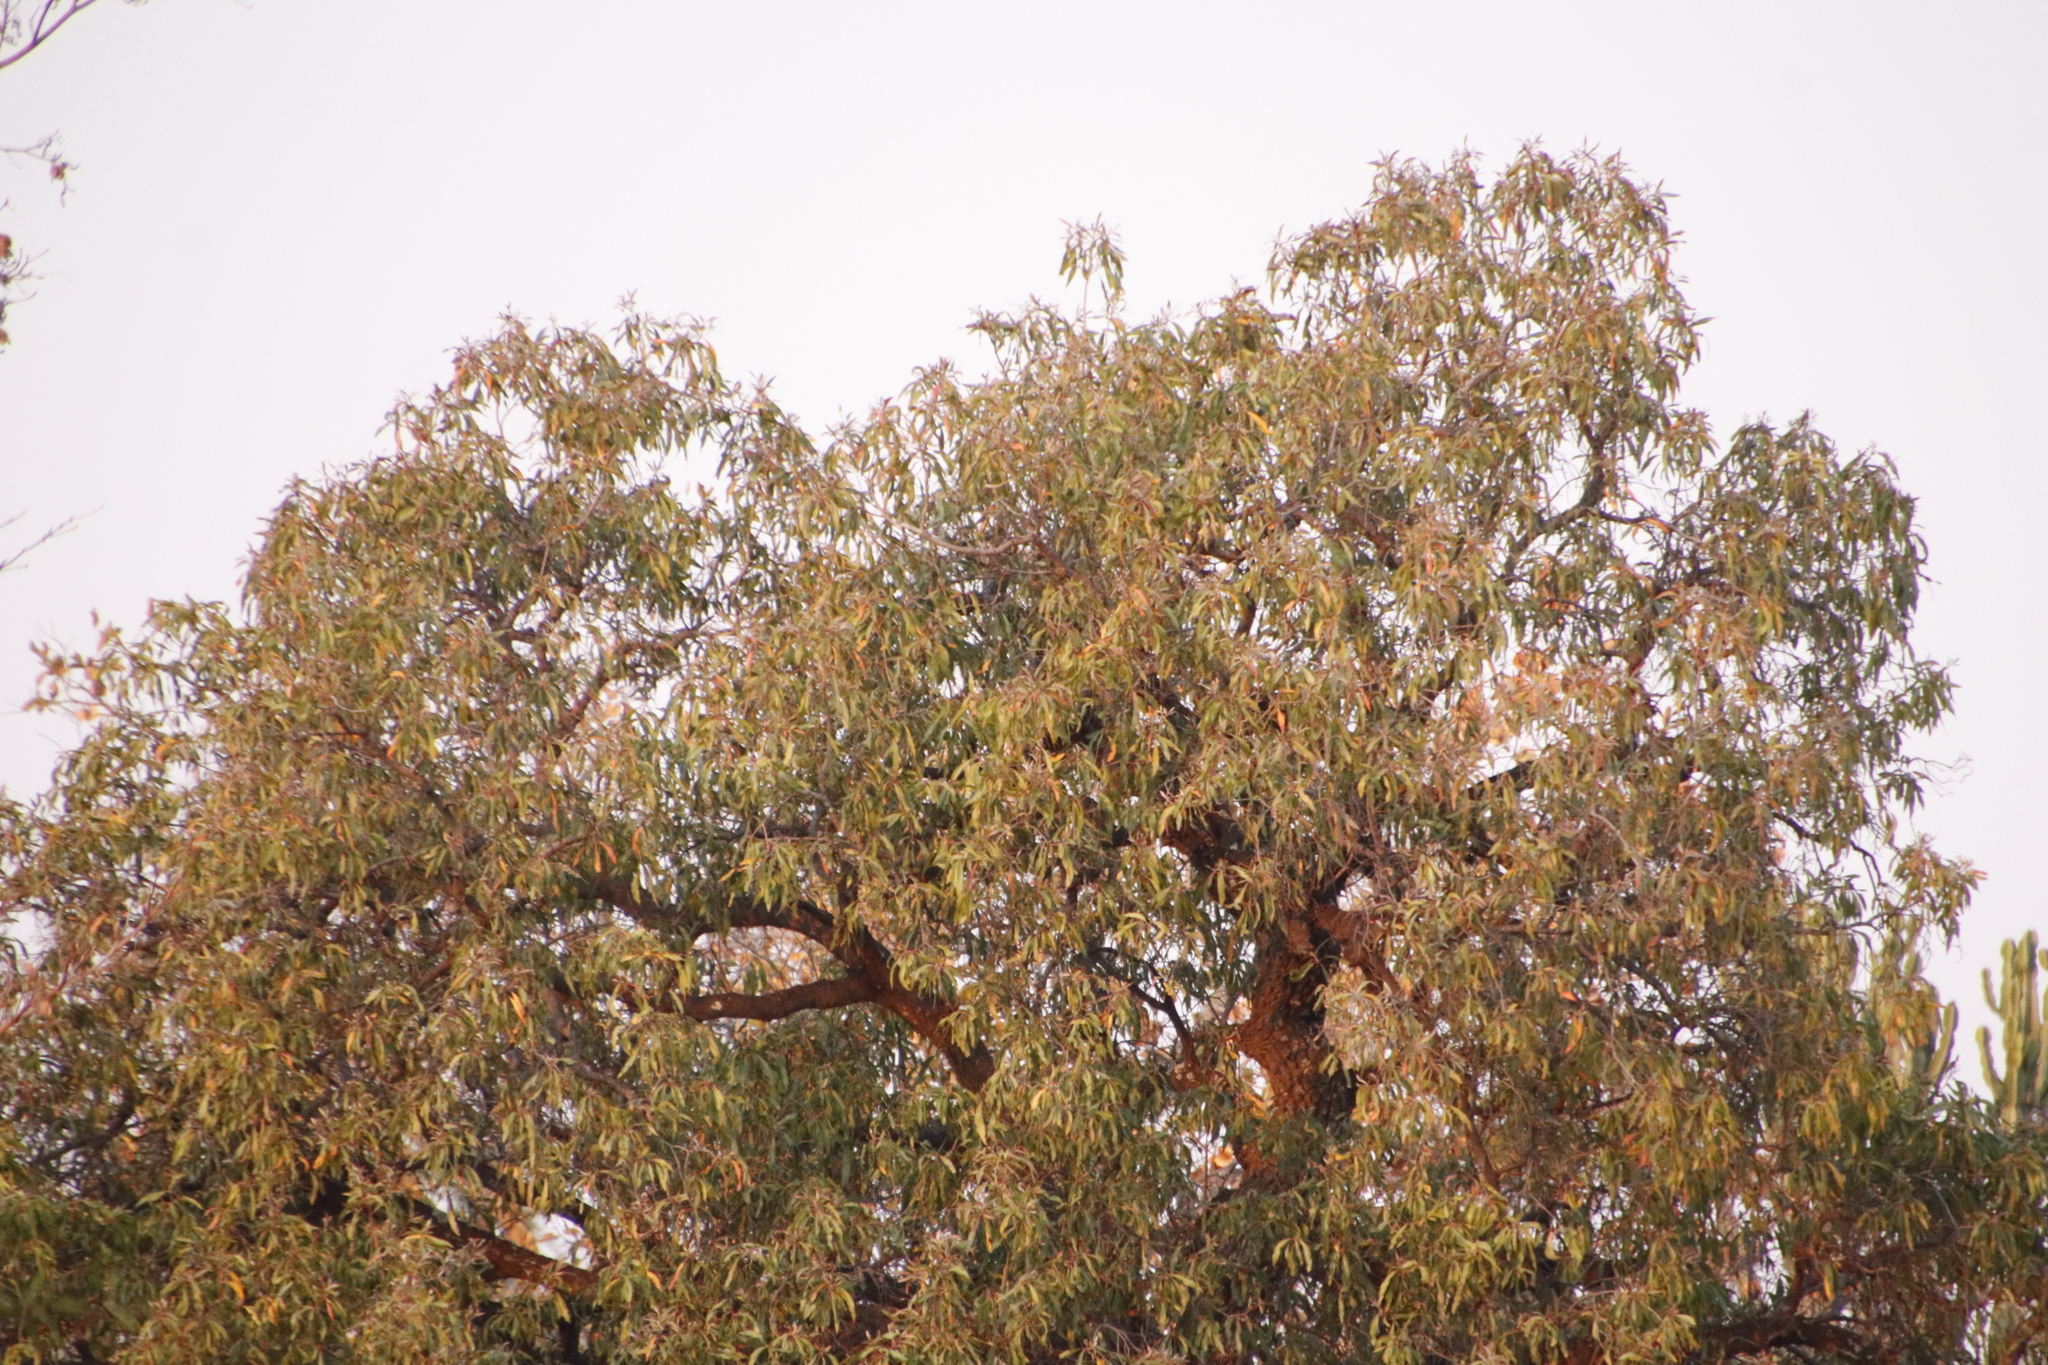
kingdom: Plantae
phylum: Tracheophyta
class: Magnoliopsida
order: Proteales
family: Proteaceae
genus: Faurea
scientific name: Faurea saligna
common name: African bean
